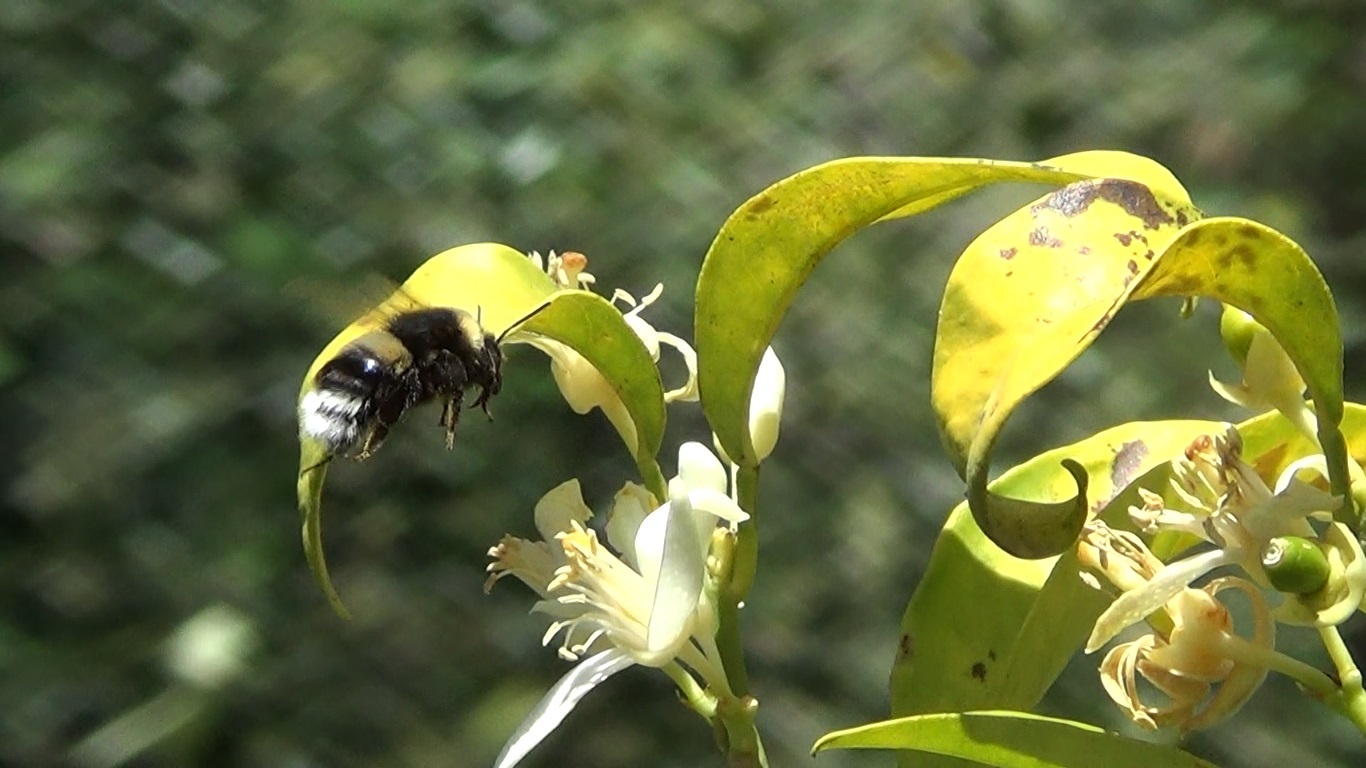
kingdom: Animalia
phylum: Arthropoda
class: Insecta
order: Hymenoptera
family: Apidae
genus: Bombus
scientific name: Bombus terrestris
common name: Buff-tailed bumblebee
